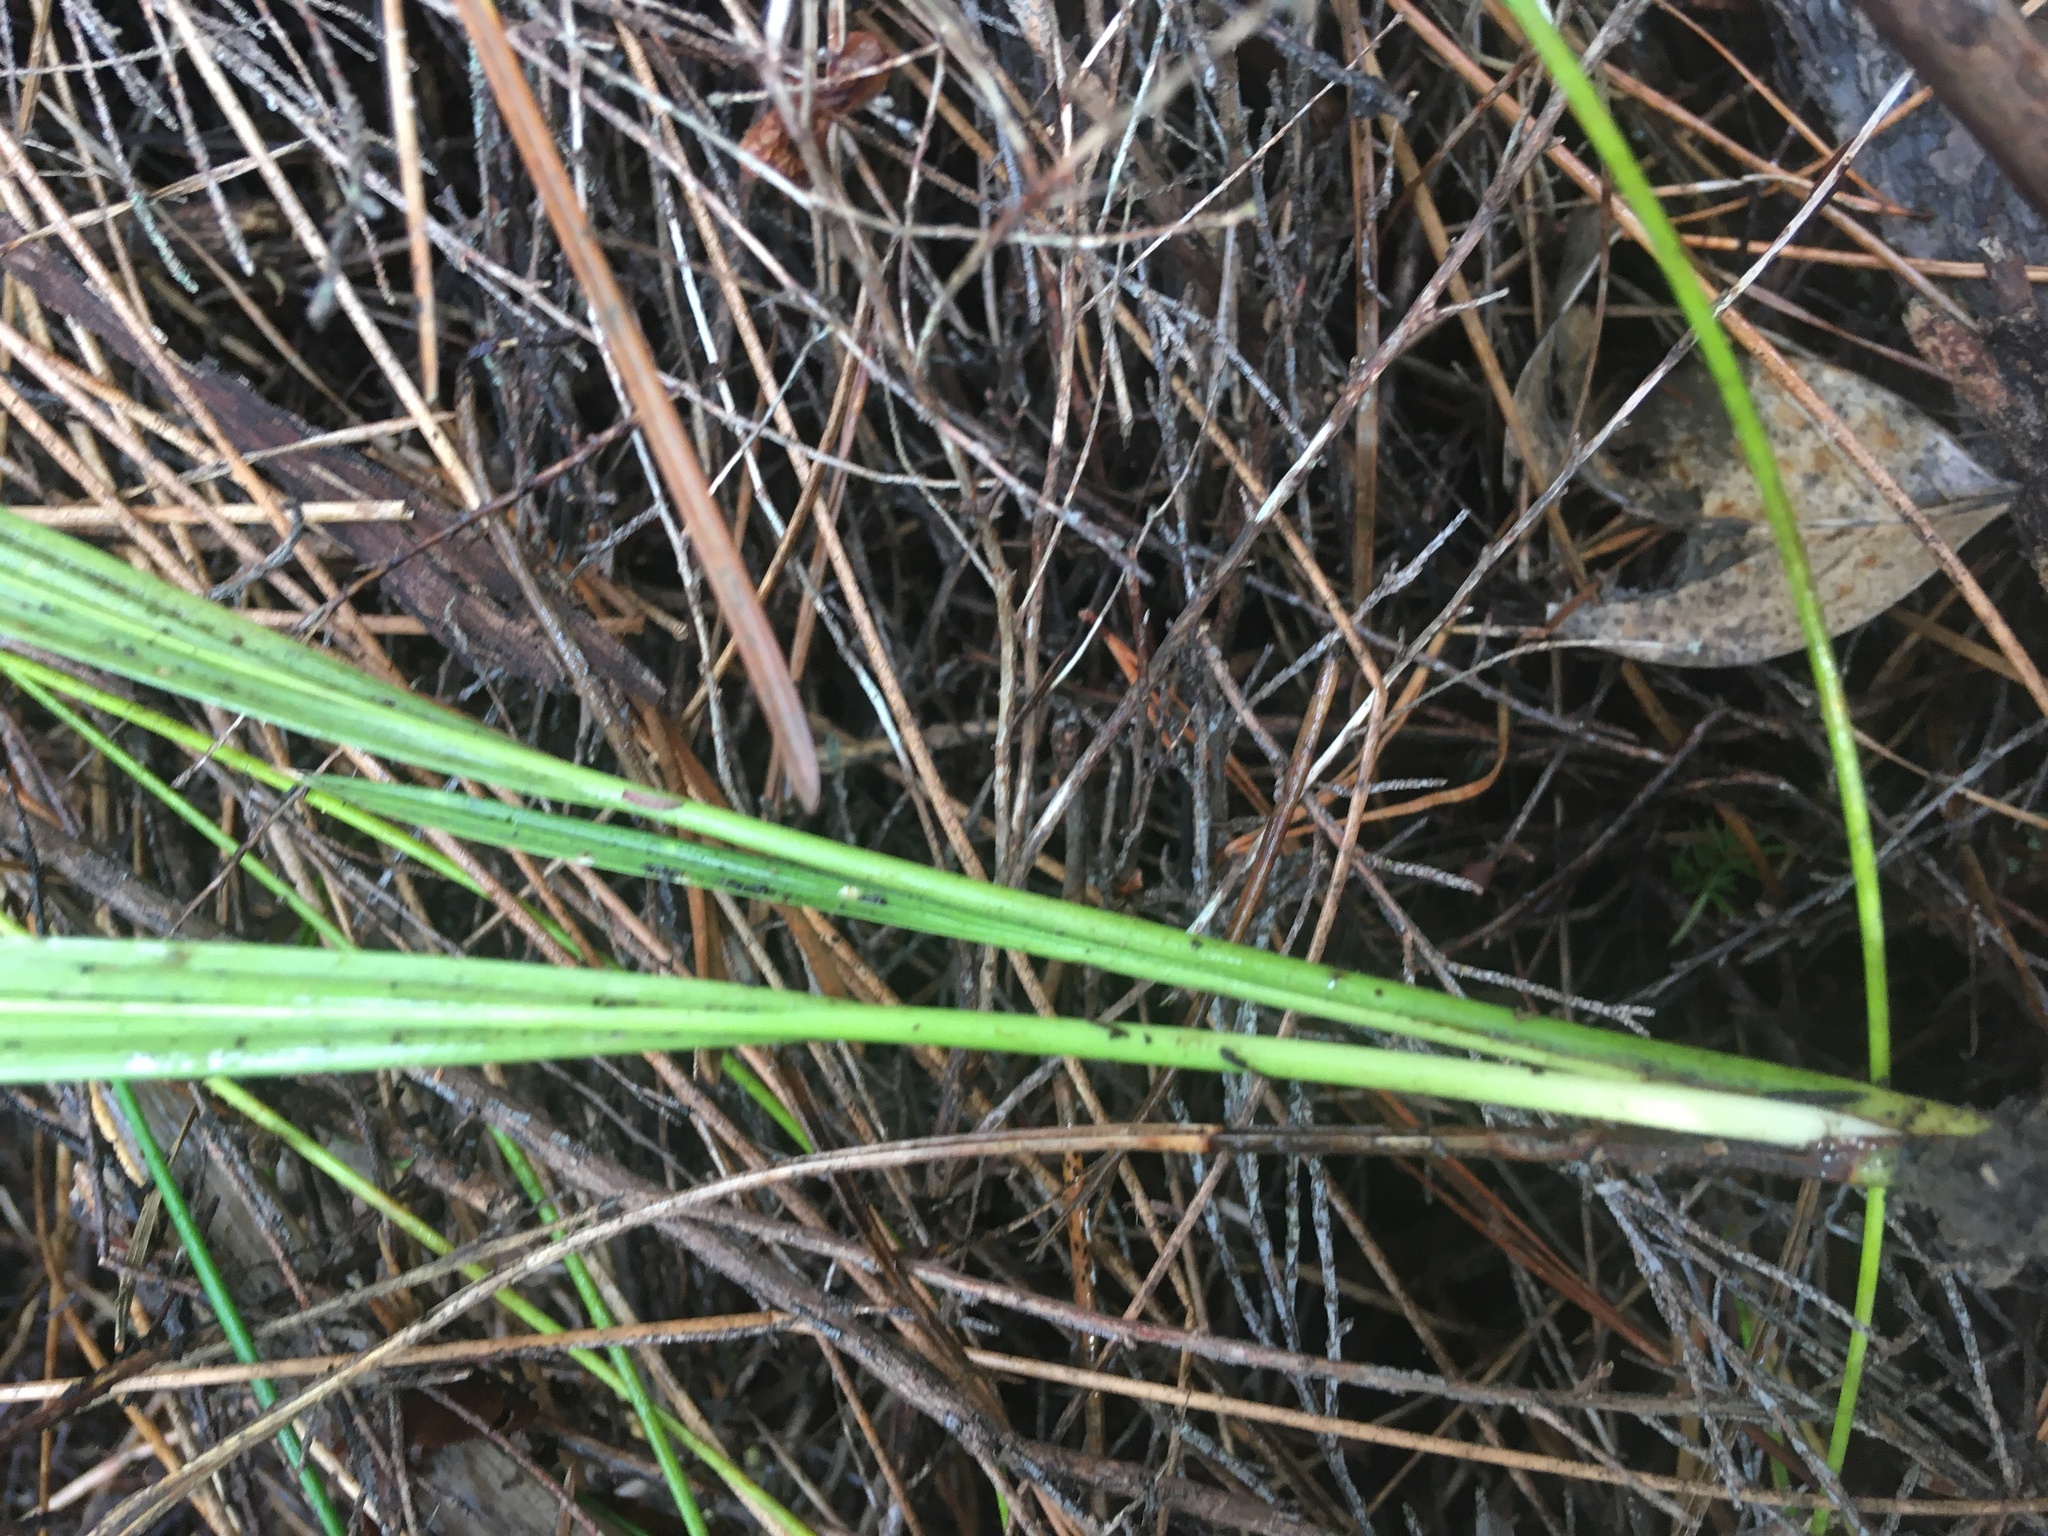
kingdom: Plantae
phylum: Tracheophyta
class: Liliopsida
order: Arecales
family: Arecaceae
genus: Phoenix
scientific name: Phoenix canariensis
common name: Canary island date palm
